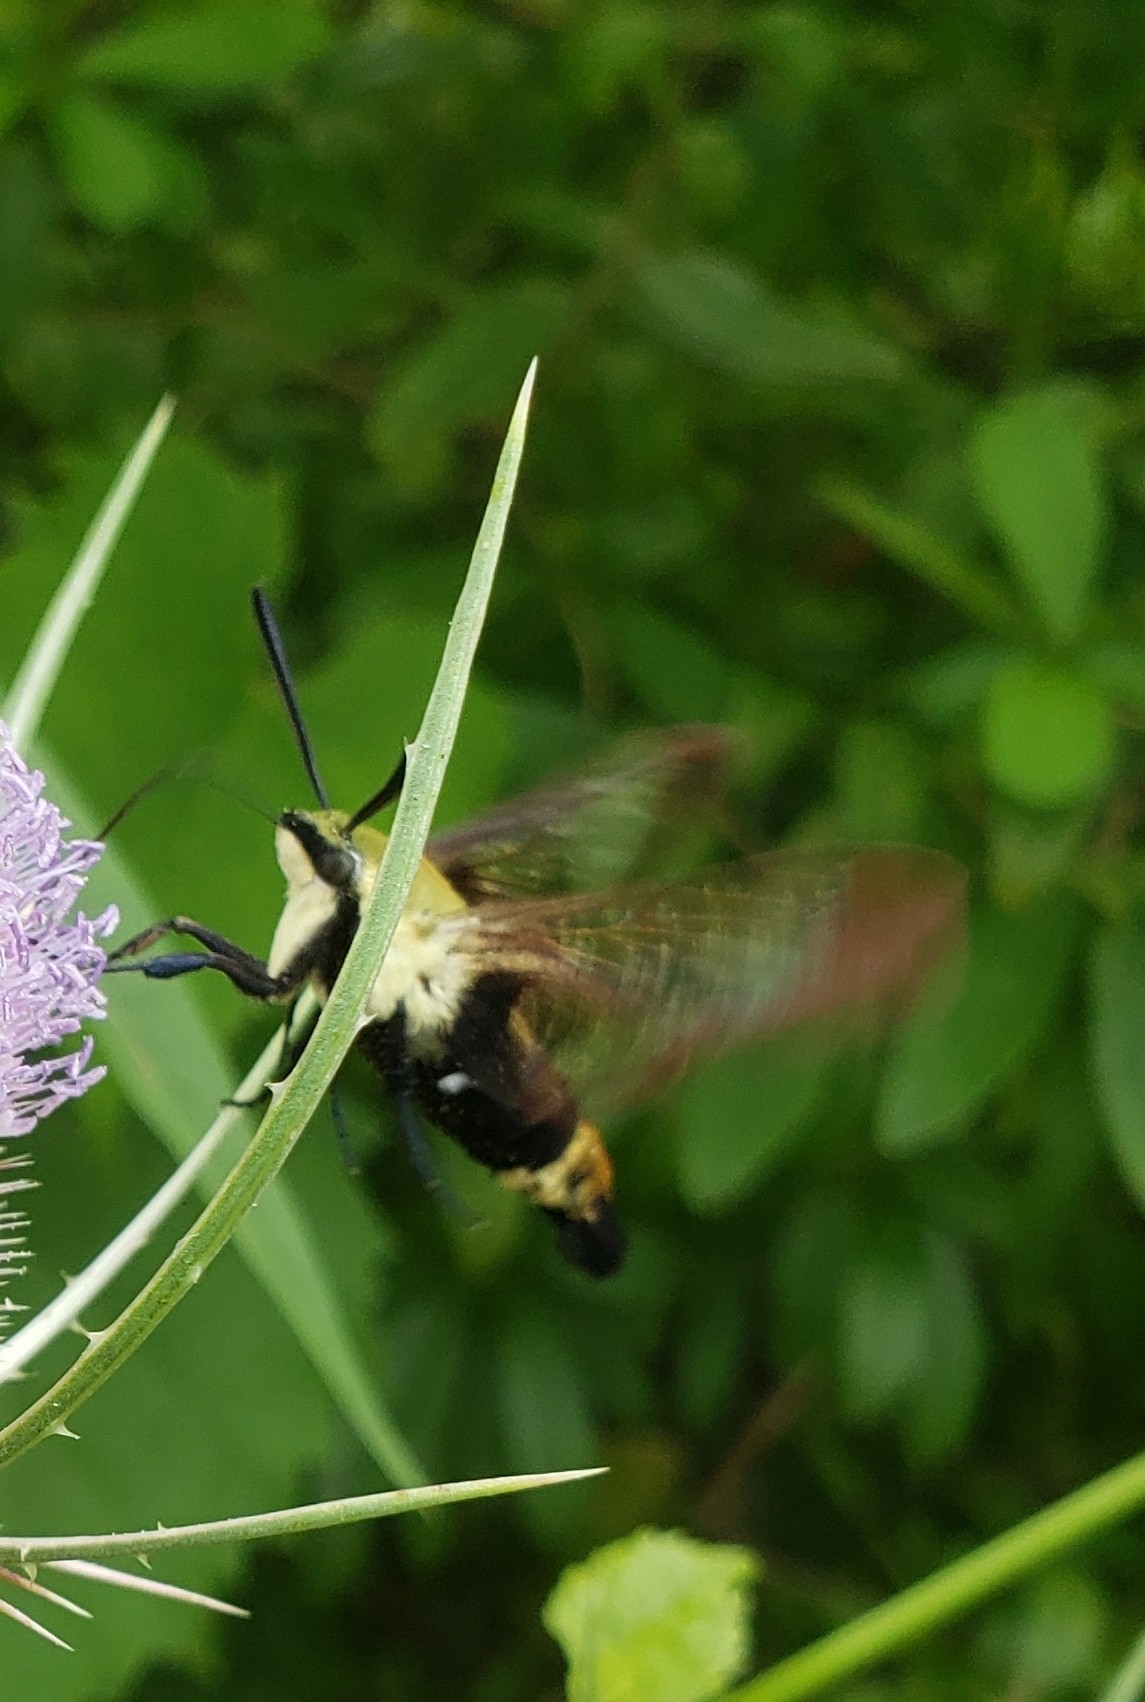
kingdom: Animalia
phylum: Arthropoda
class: Insecta
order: Lepidoptera
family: Sphingidae
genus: Hemaris
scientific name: Hemaris diffinis
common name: Bumblebee moth
